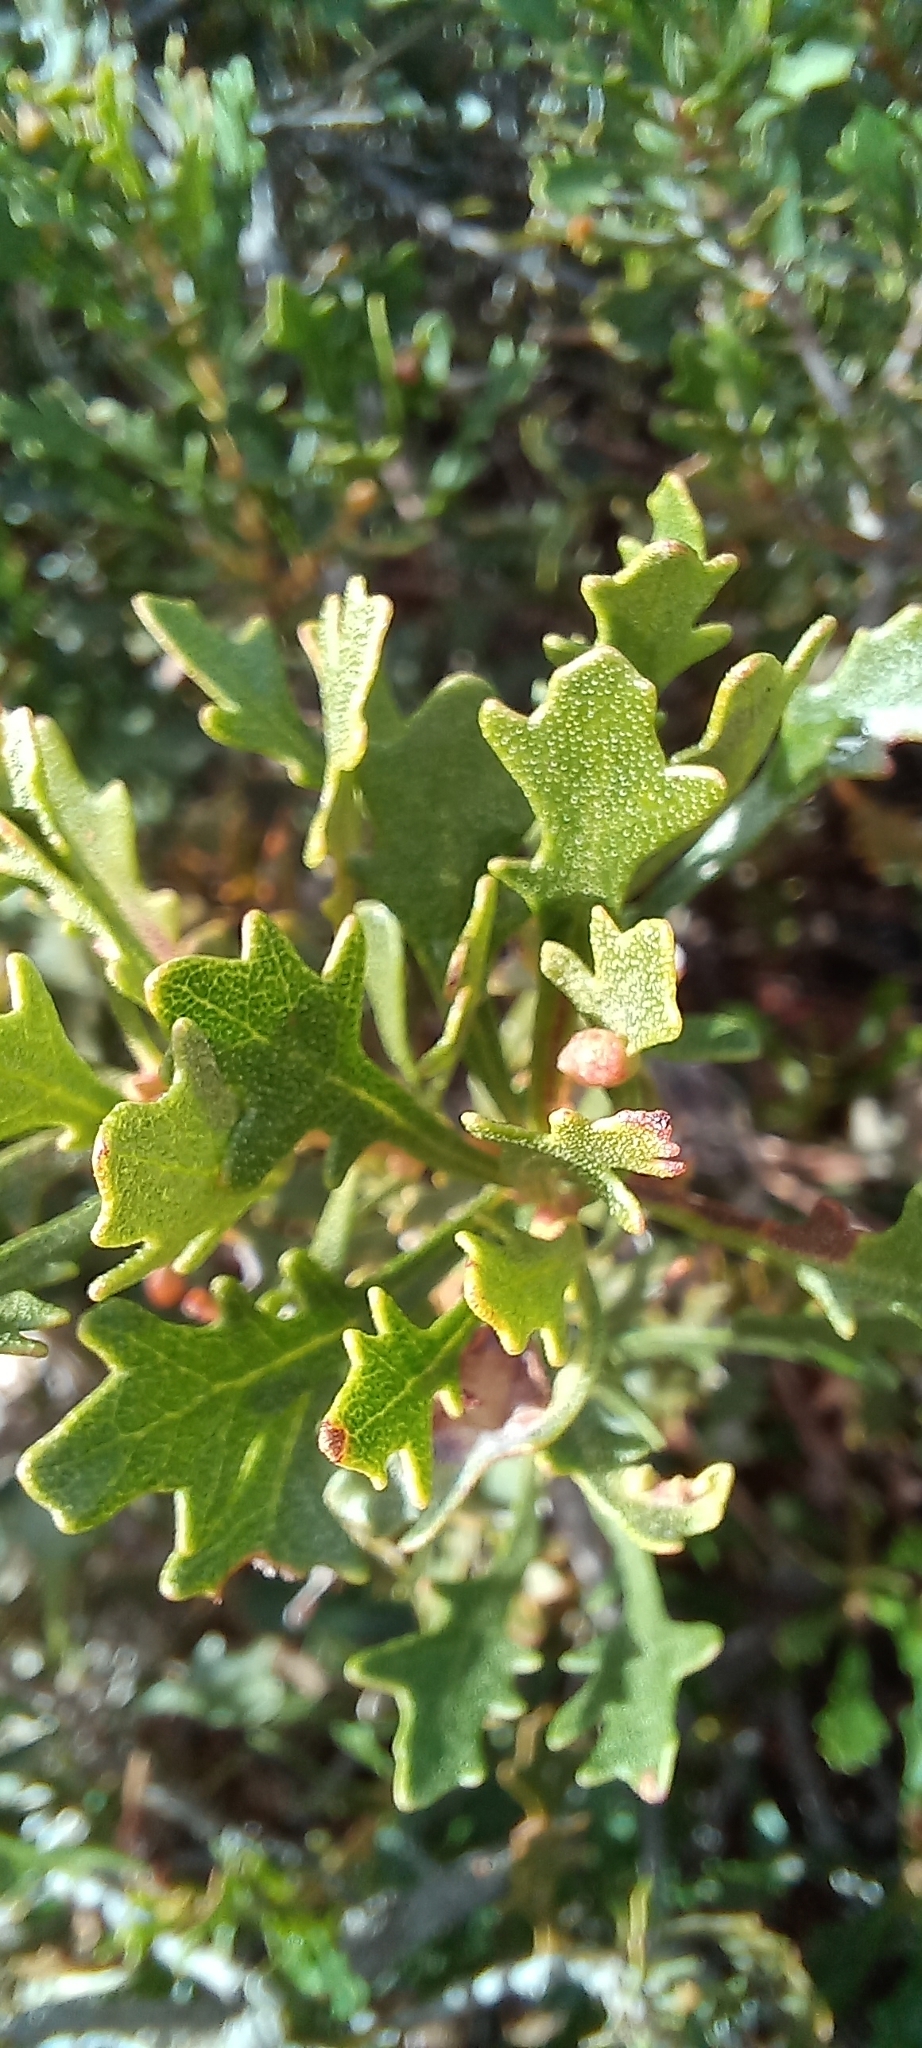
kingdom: Plantae
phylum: Tracheophyta
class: Magnoliopsida
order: Fagales
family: Myricaceae
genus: Morella
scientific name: Morella quercifolia
